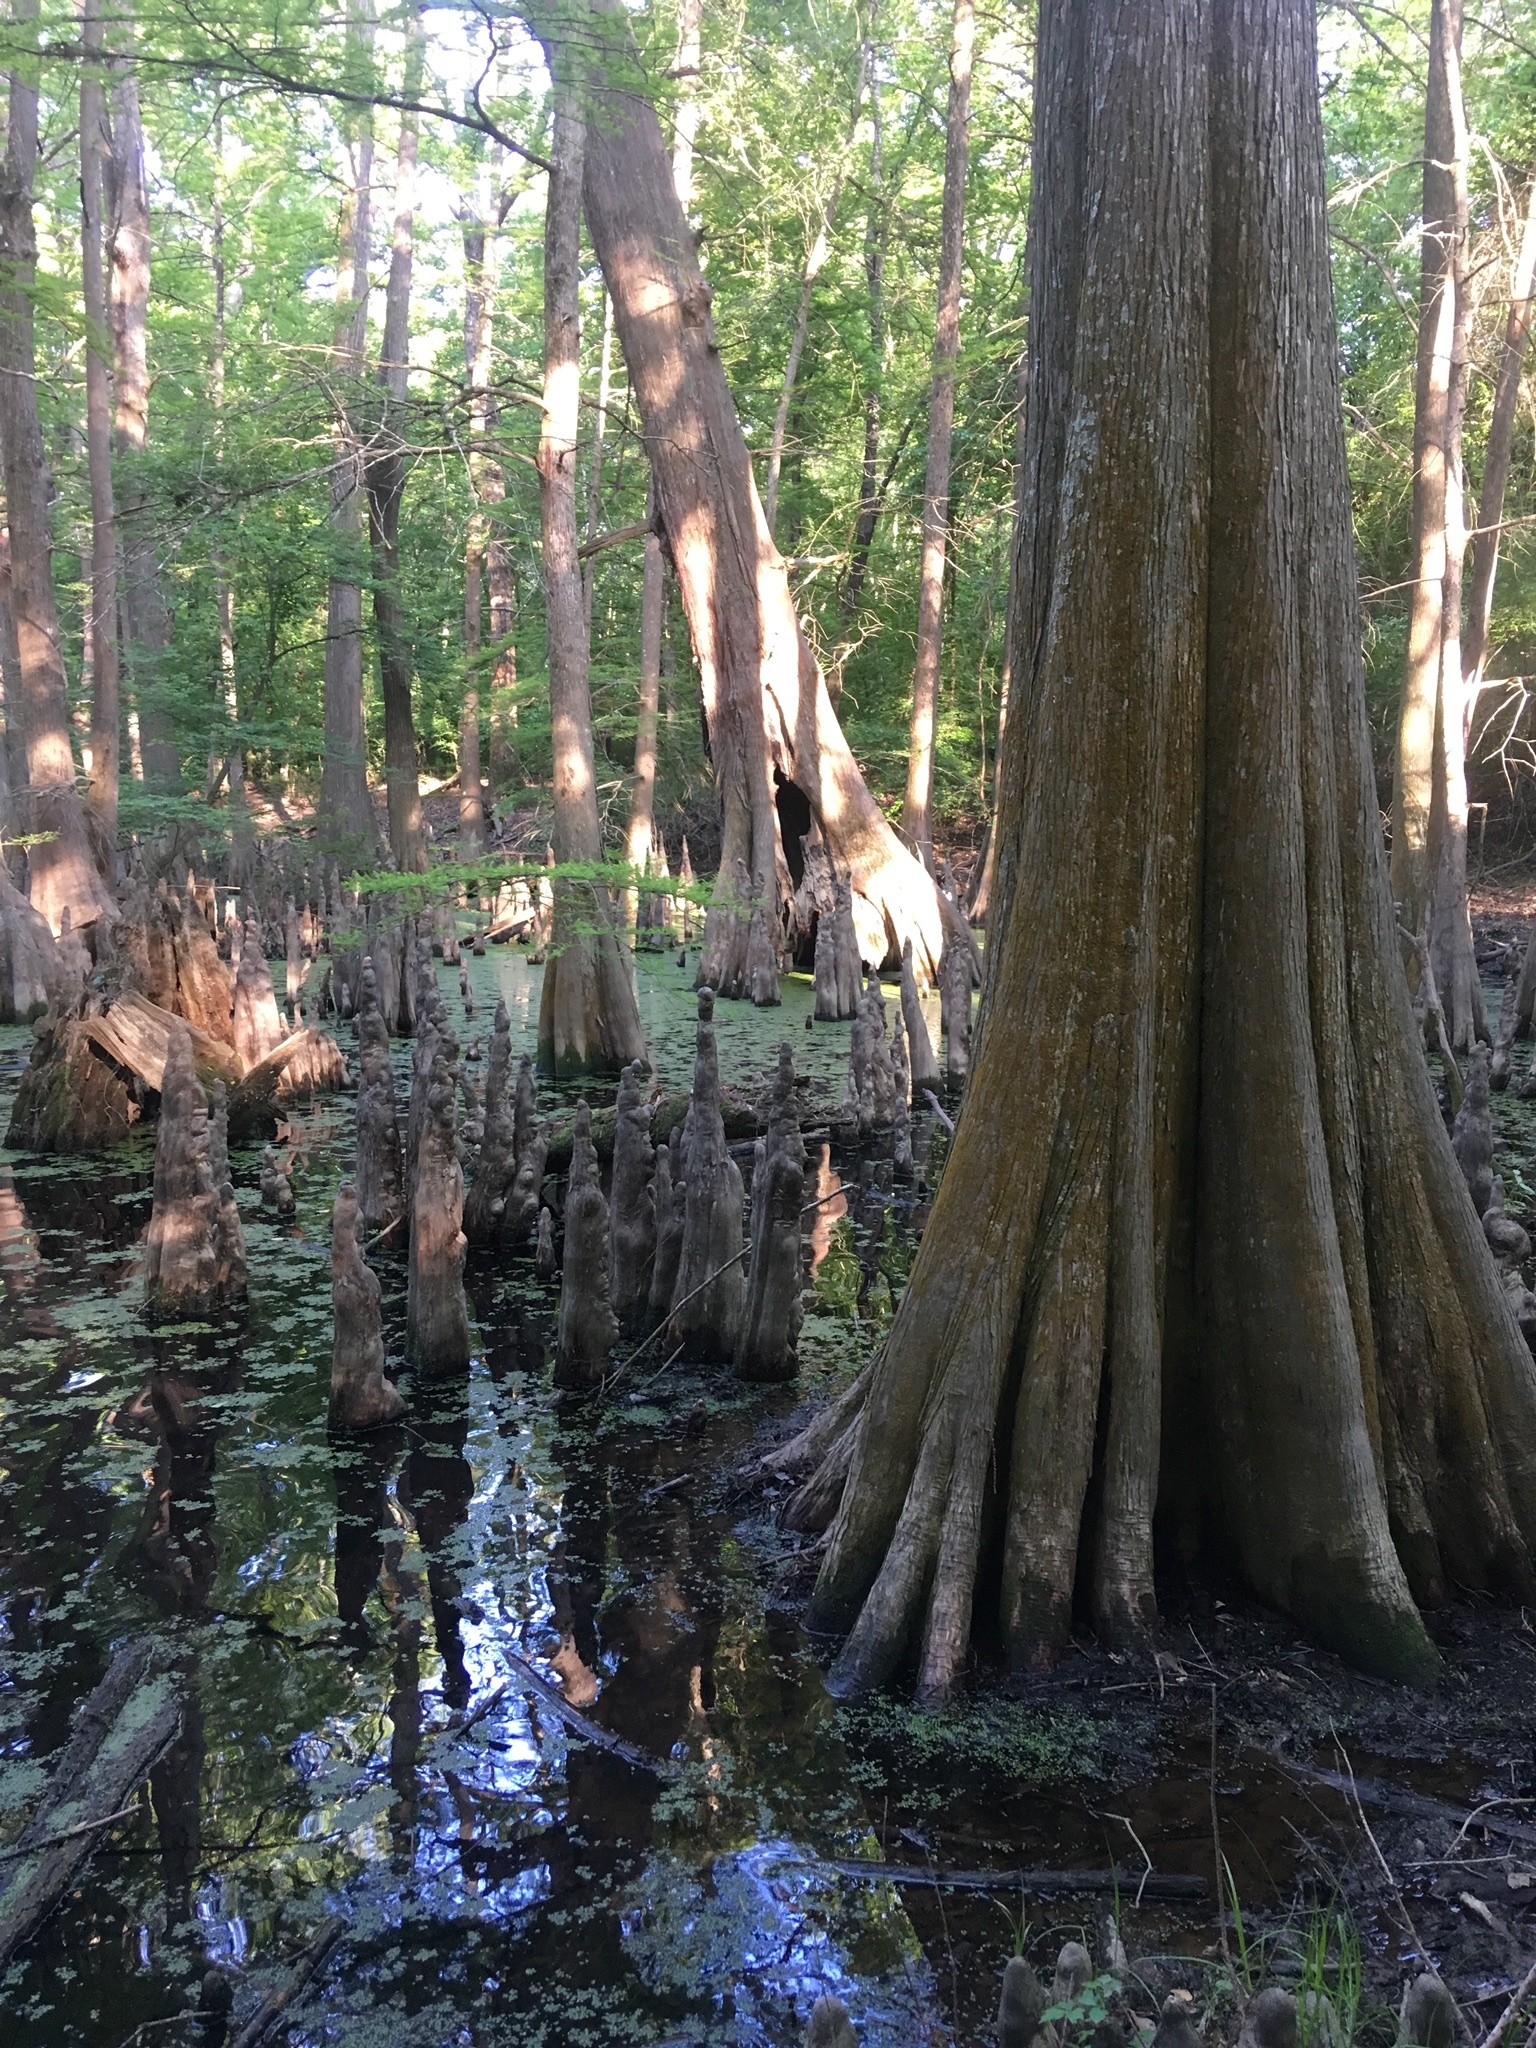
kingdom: Plantae
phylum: Tracheophyta
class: Pinopsida
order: Pinales
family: Cupressaceae
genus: Taxodium
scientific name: Taxodium distichum
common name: Bald cypress
